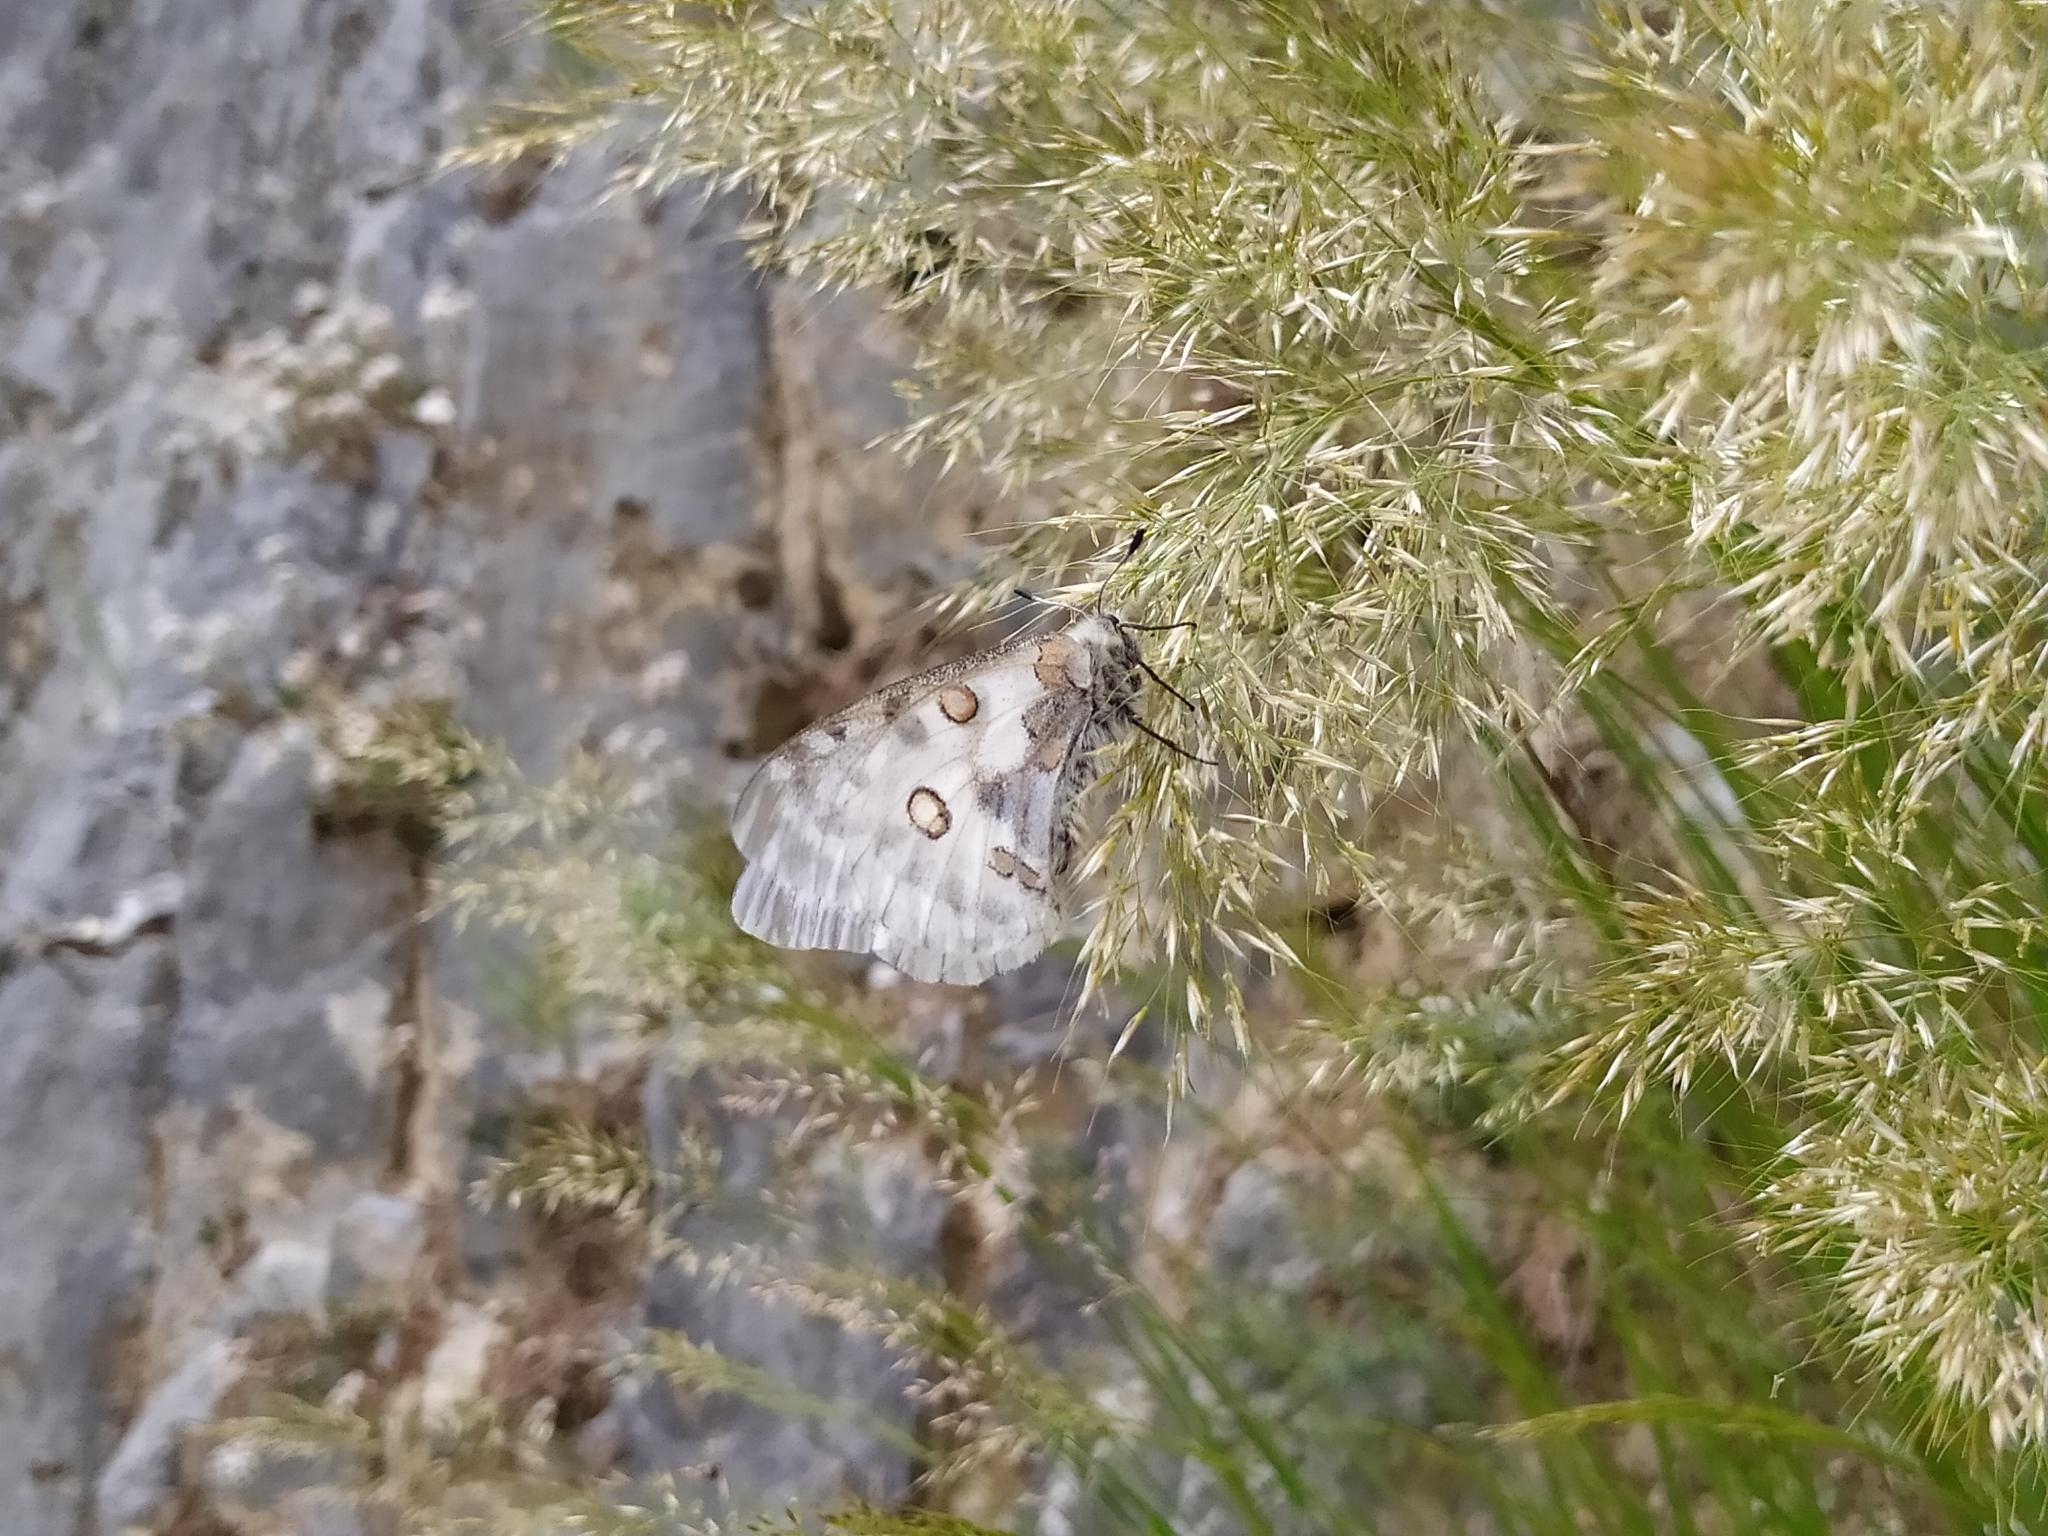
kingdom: Animalia
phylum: Arthropoda
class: Insecta
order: Lepidoptera
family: Papilionidae
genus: Parnassius
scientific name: Parnassius apollo
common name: Apollo
